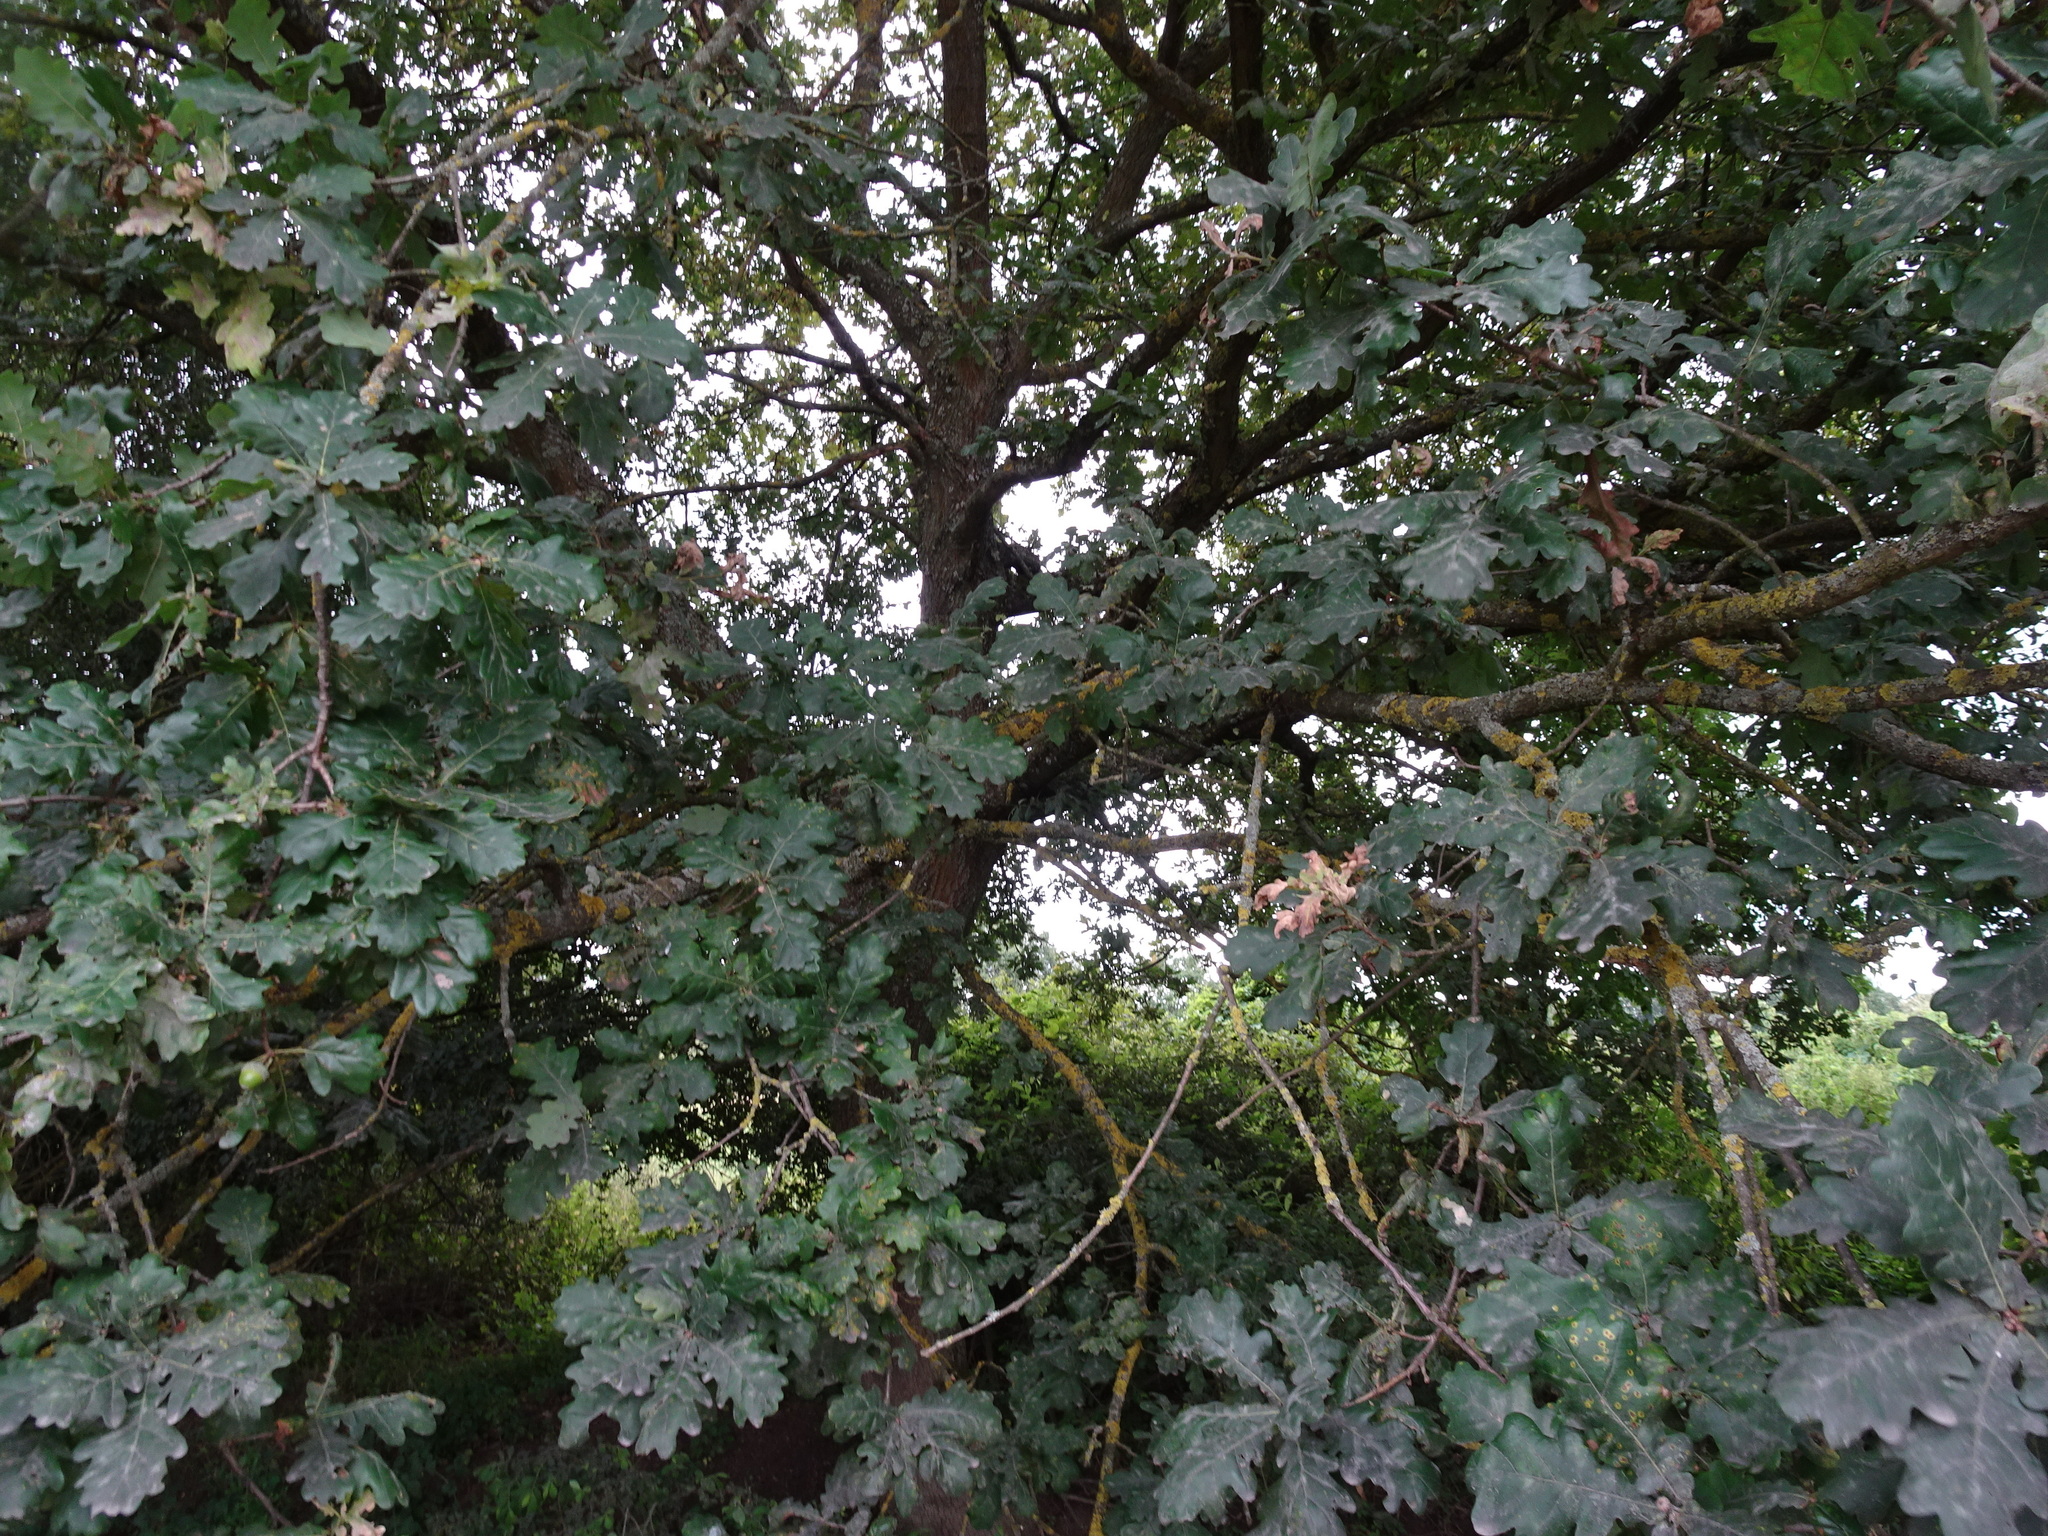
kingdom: Plantae
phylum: Tracheophyta
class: Magnoliopsida
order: Fagales
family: Fagaceae
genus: Quercus
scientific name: Quercus robur
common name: Pedunculate oak
